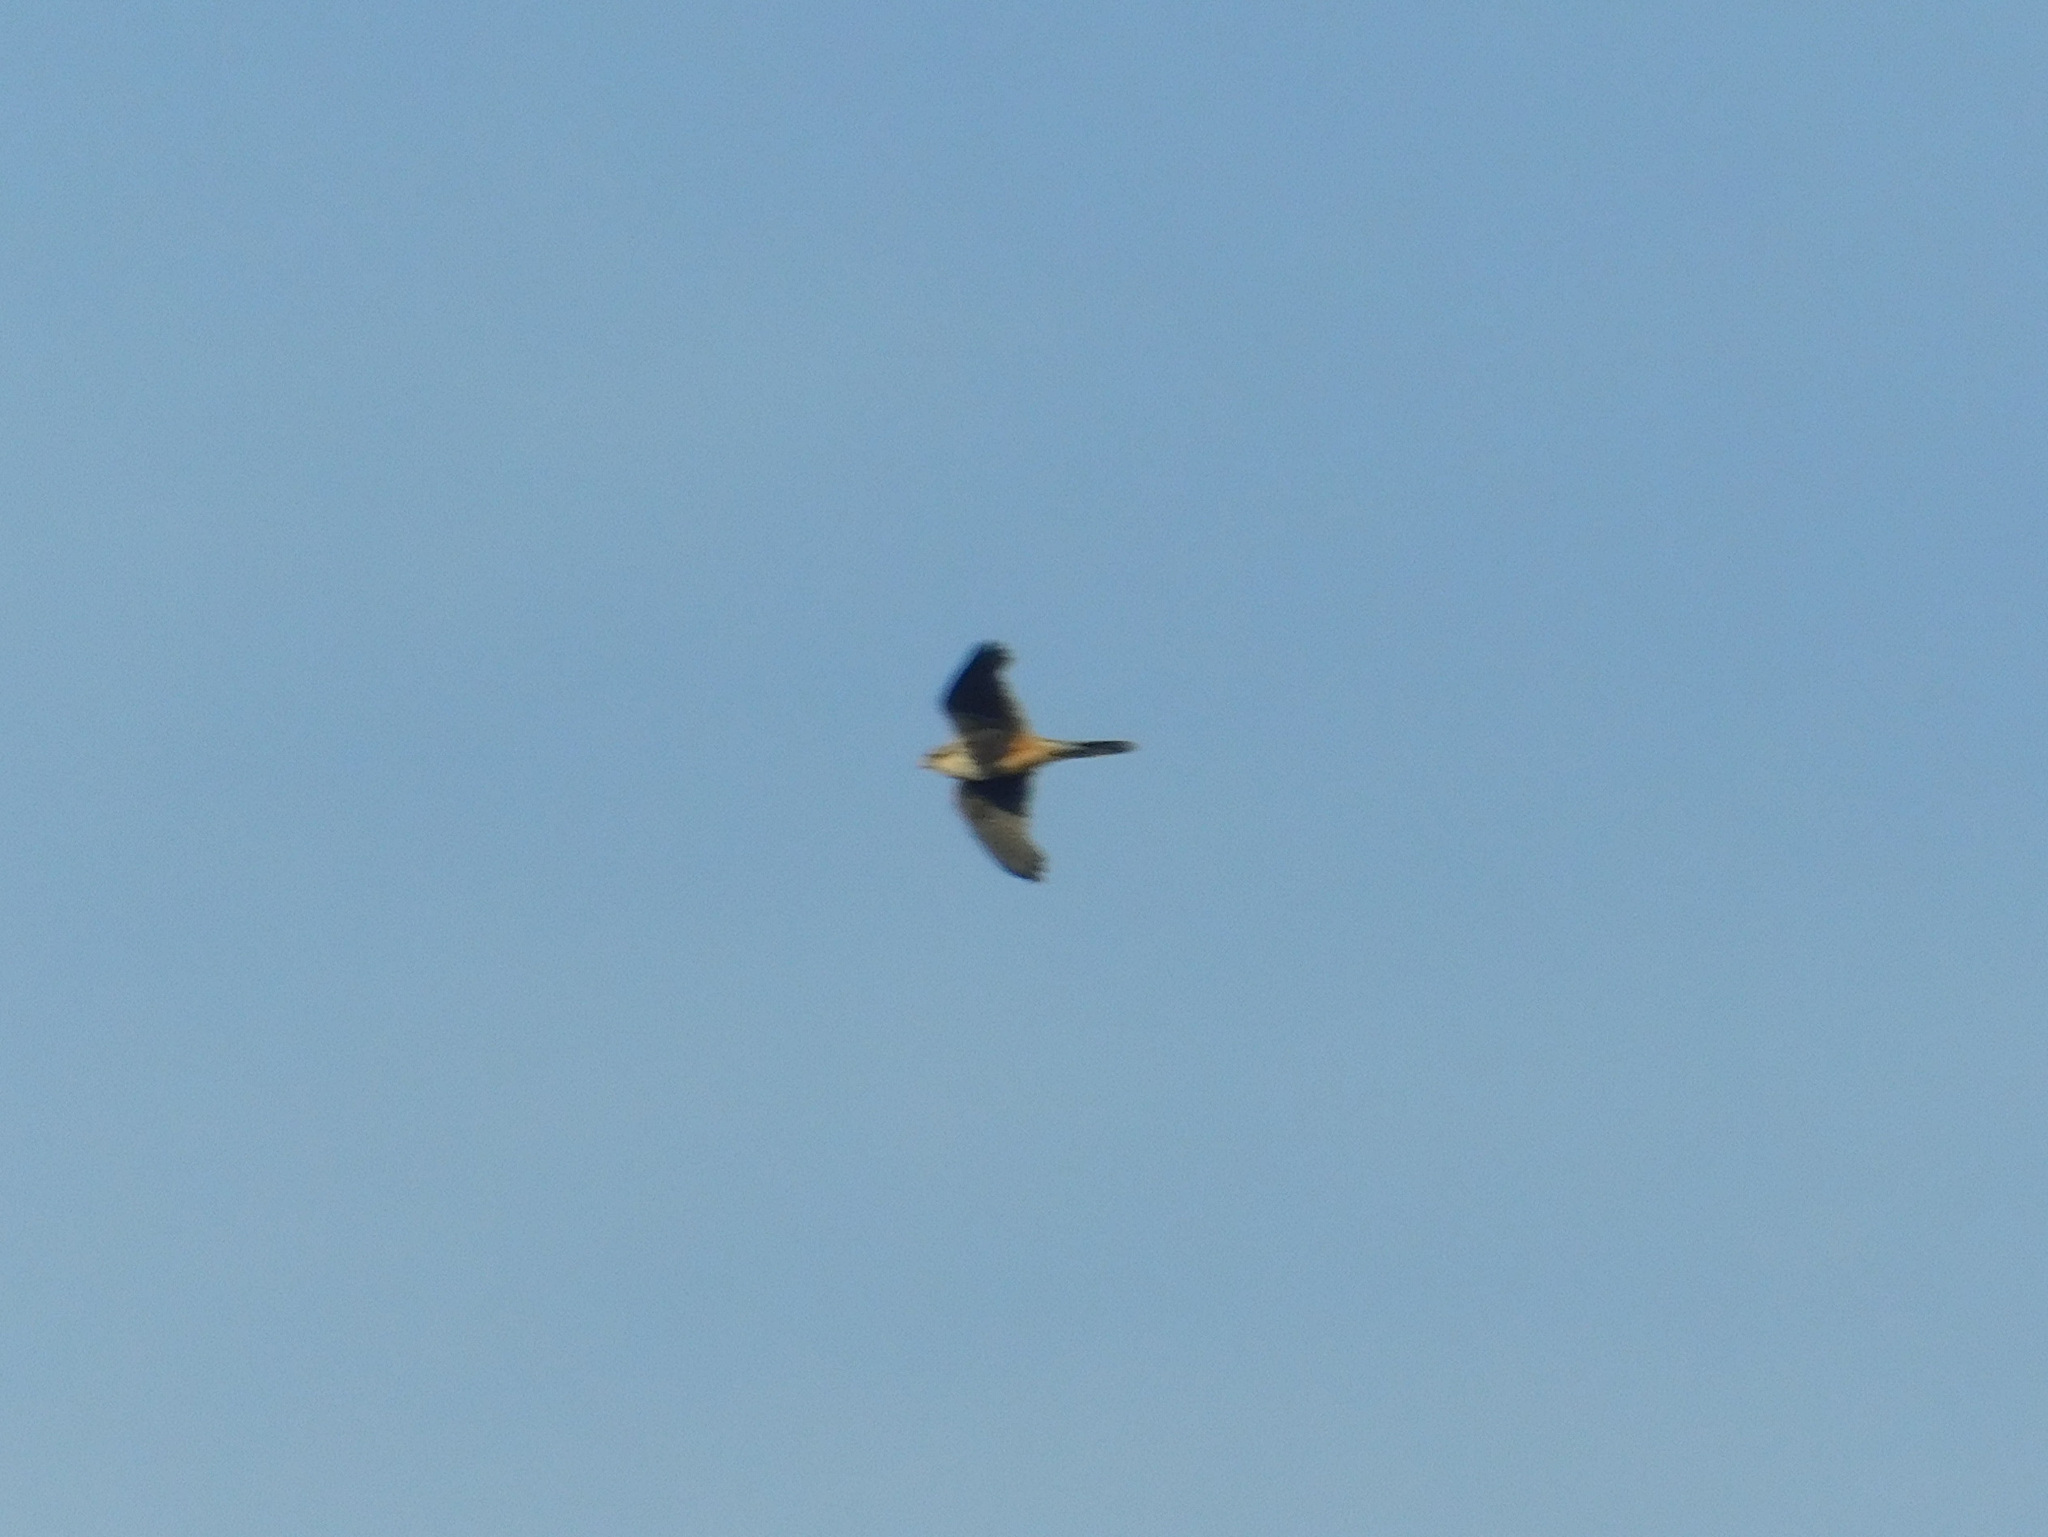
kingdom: Animalia
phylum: Chordata
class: Aves
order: Falconiformes
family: Falconidae
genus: Falco
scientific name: Falco femoralis
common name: Aplomado falcon
